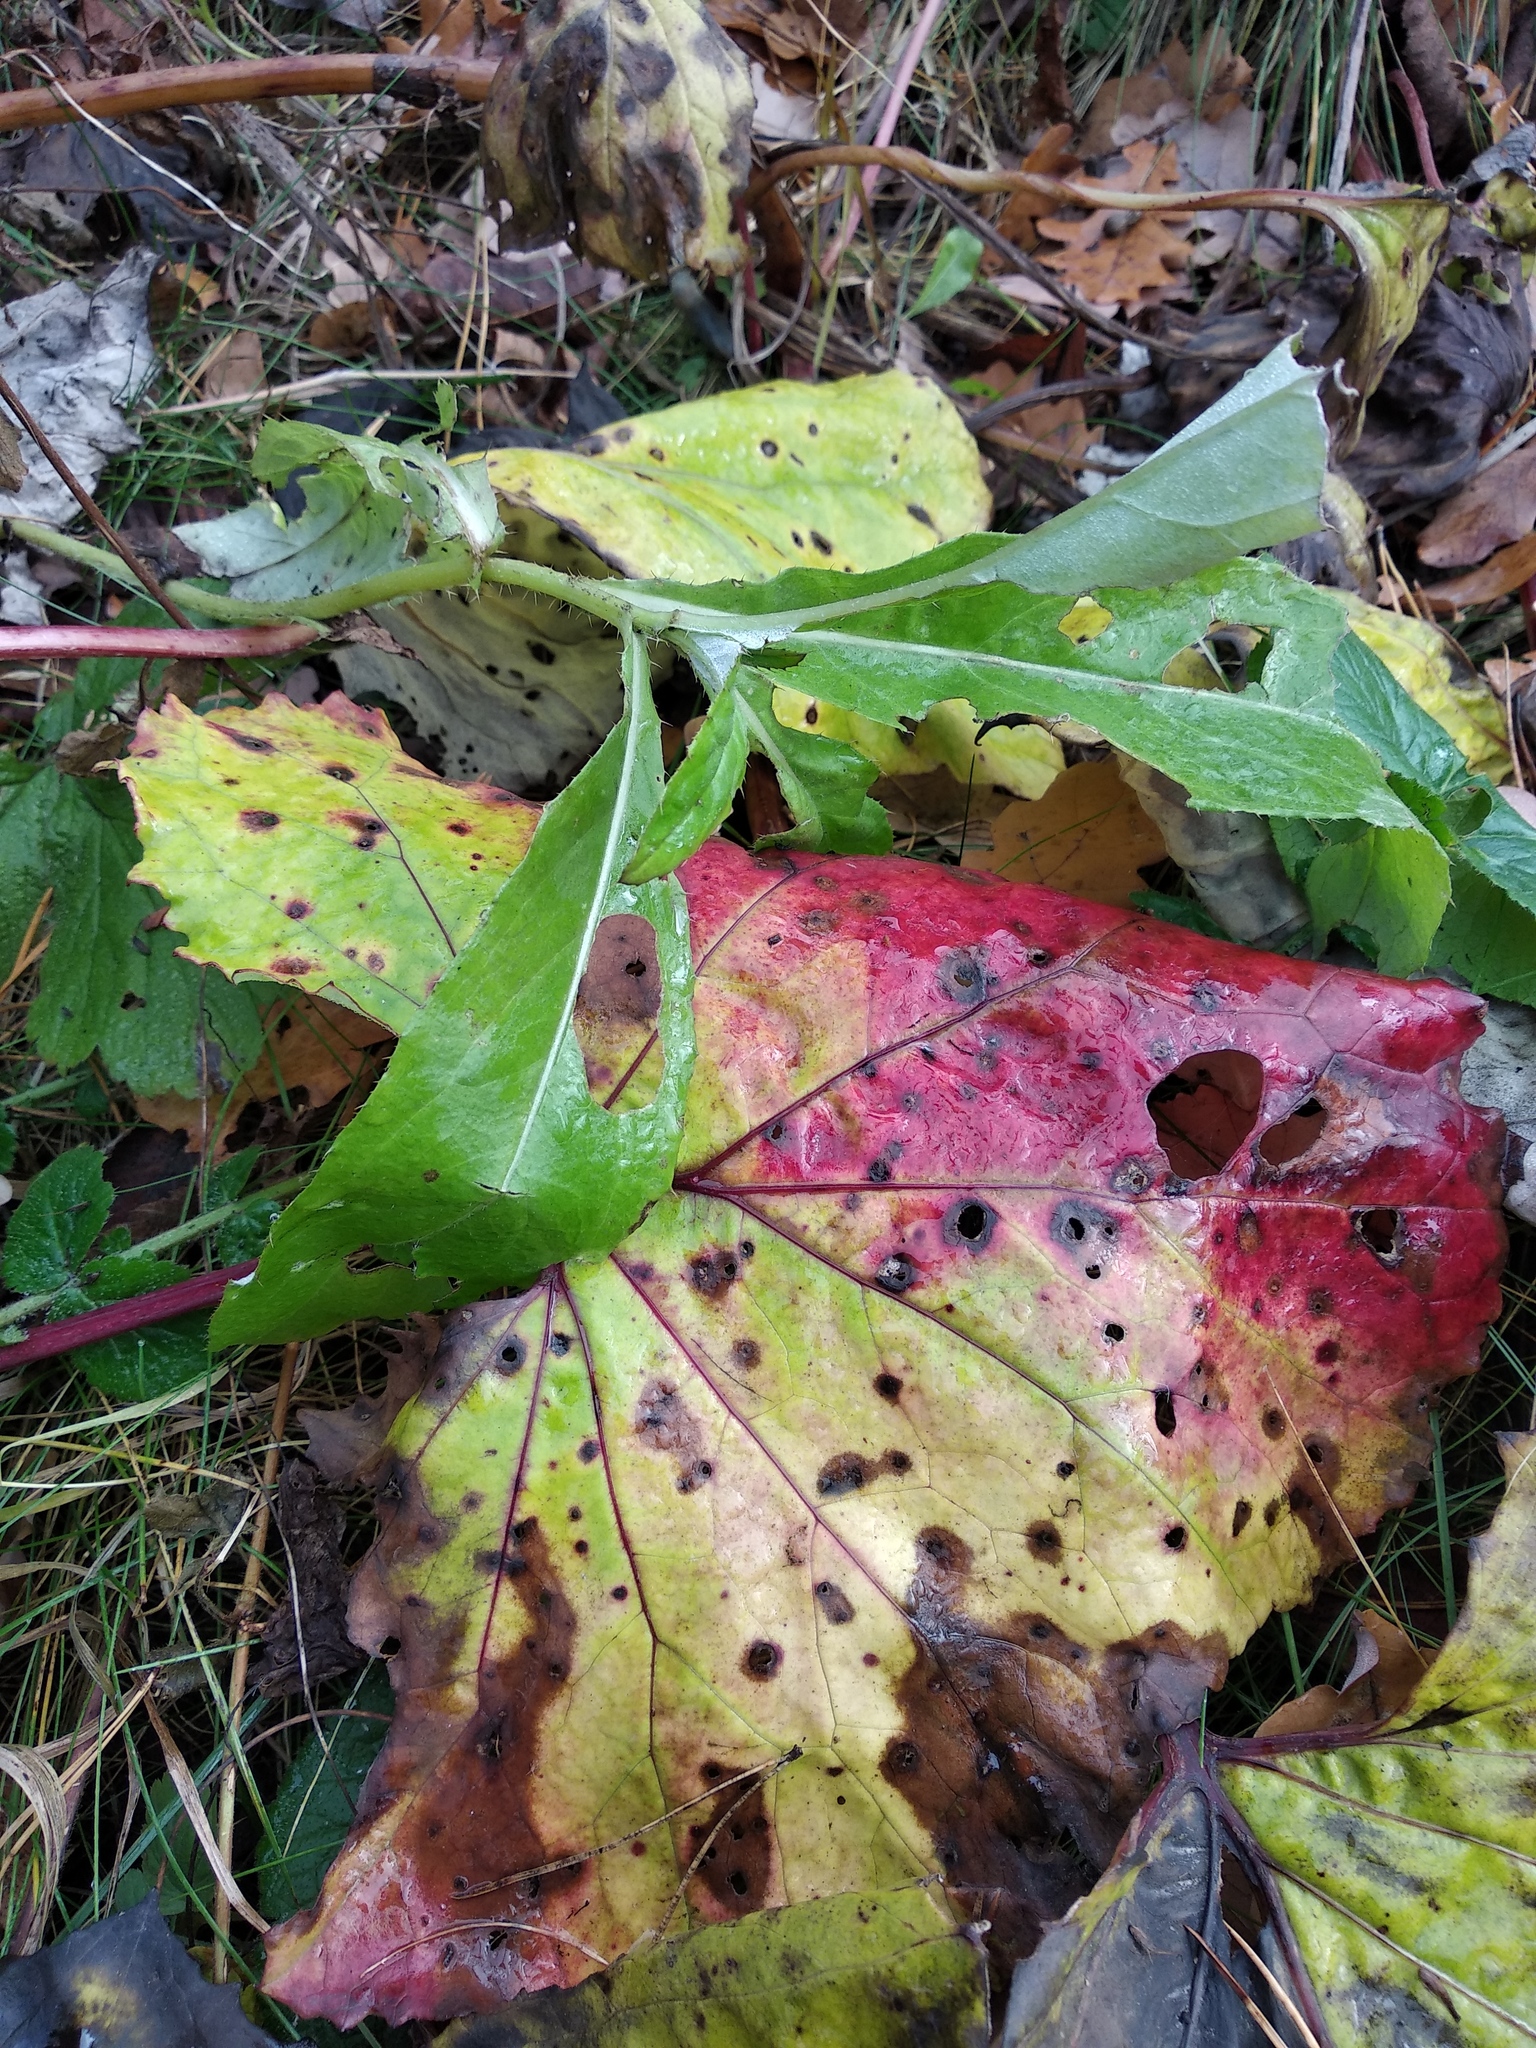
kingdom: Plantae
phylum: Tracheophyta
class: Magnoliopsida
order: Asterales
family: Asteraceae
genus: Tussilago
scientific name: Tussilago farfara
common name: Coltsfoot
